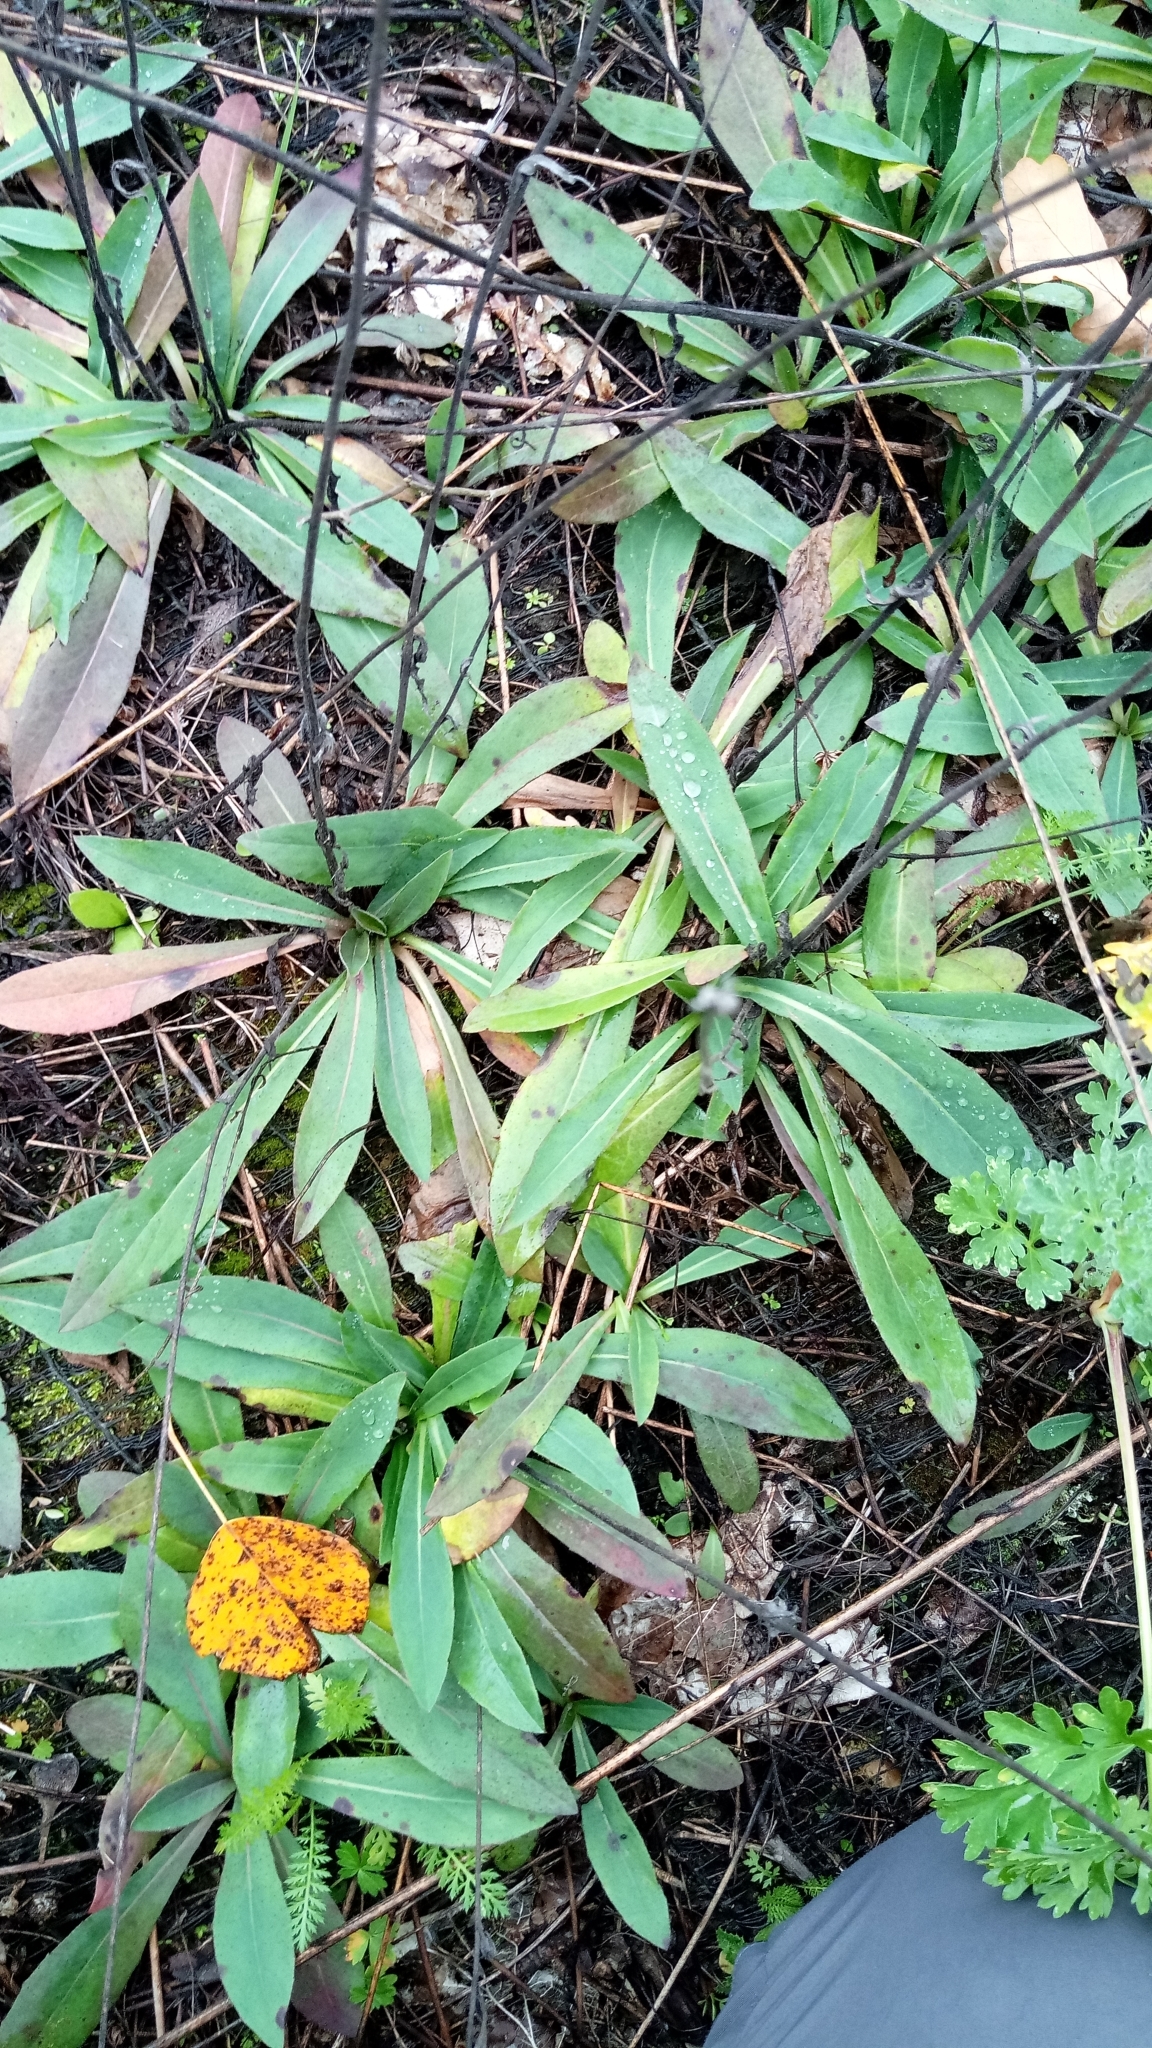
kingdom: Plantae
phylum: Tracheophyta
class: Magnoliopsida
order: Asterales
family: Asteraceae
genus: Pilosella
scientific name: Pilosella
